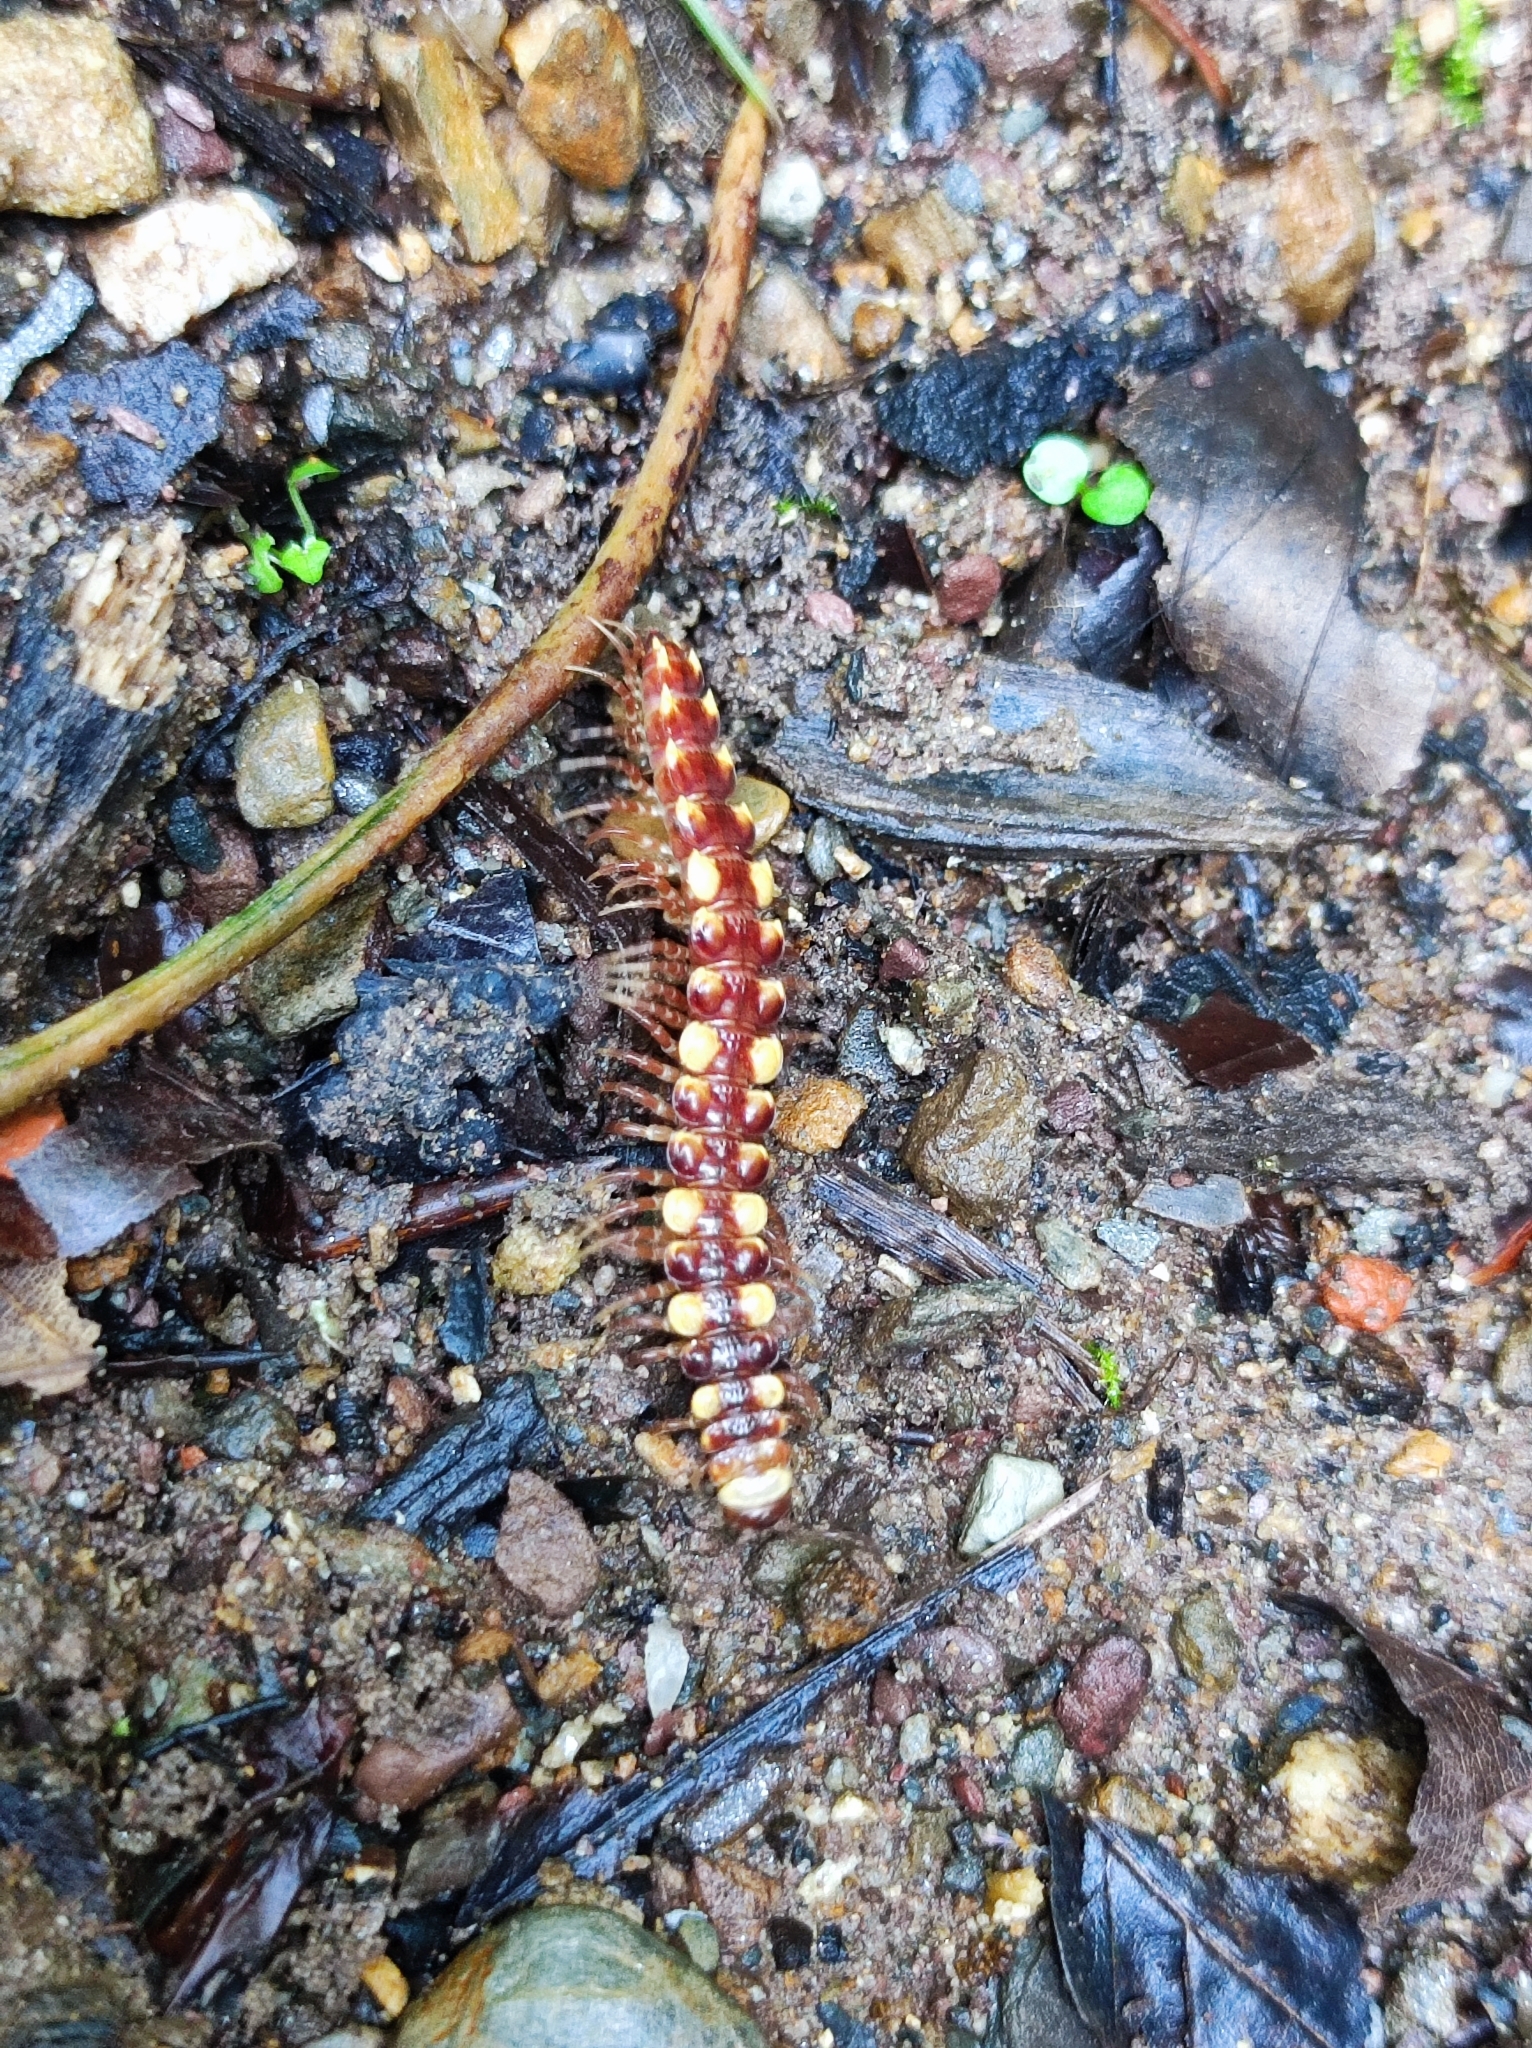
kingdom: Animalia
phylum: Arthropoda
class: Diplopoda
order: Polydesmida
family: Polydesmidae
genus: Polydesmus
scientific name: Polydesmus collaris
